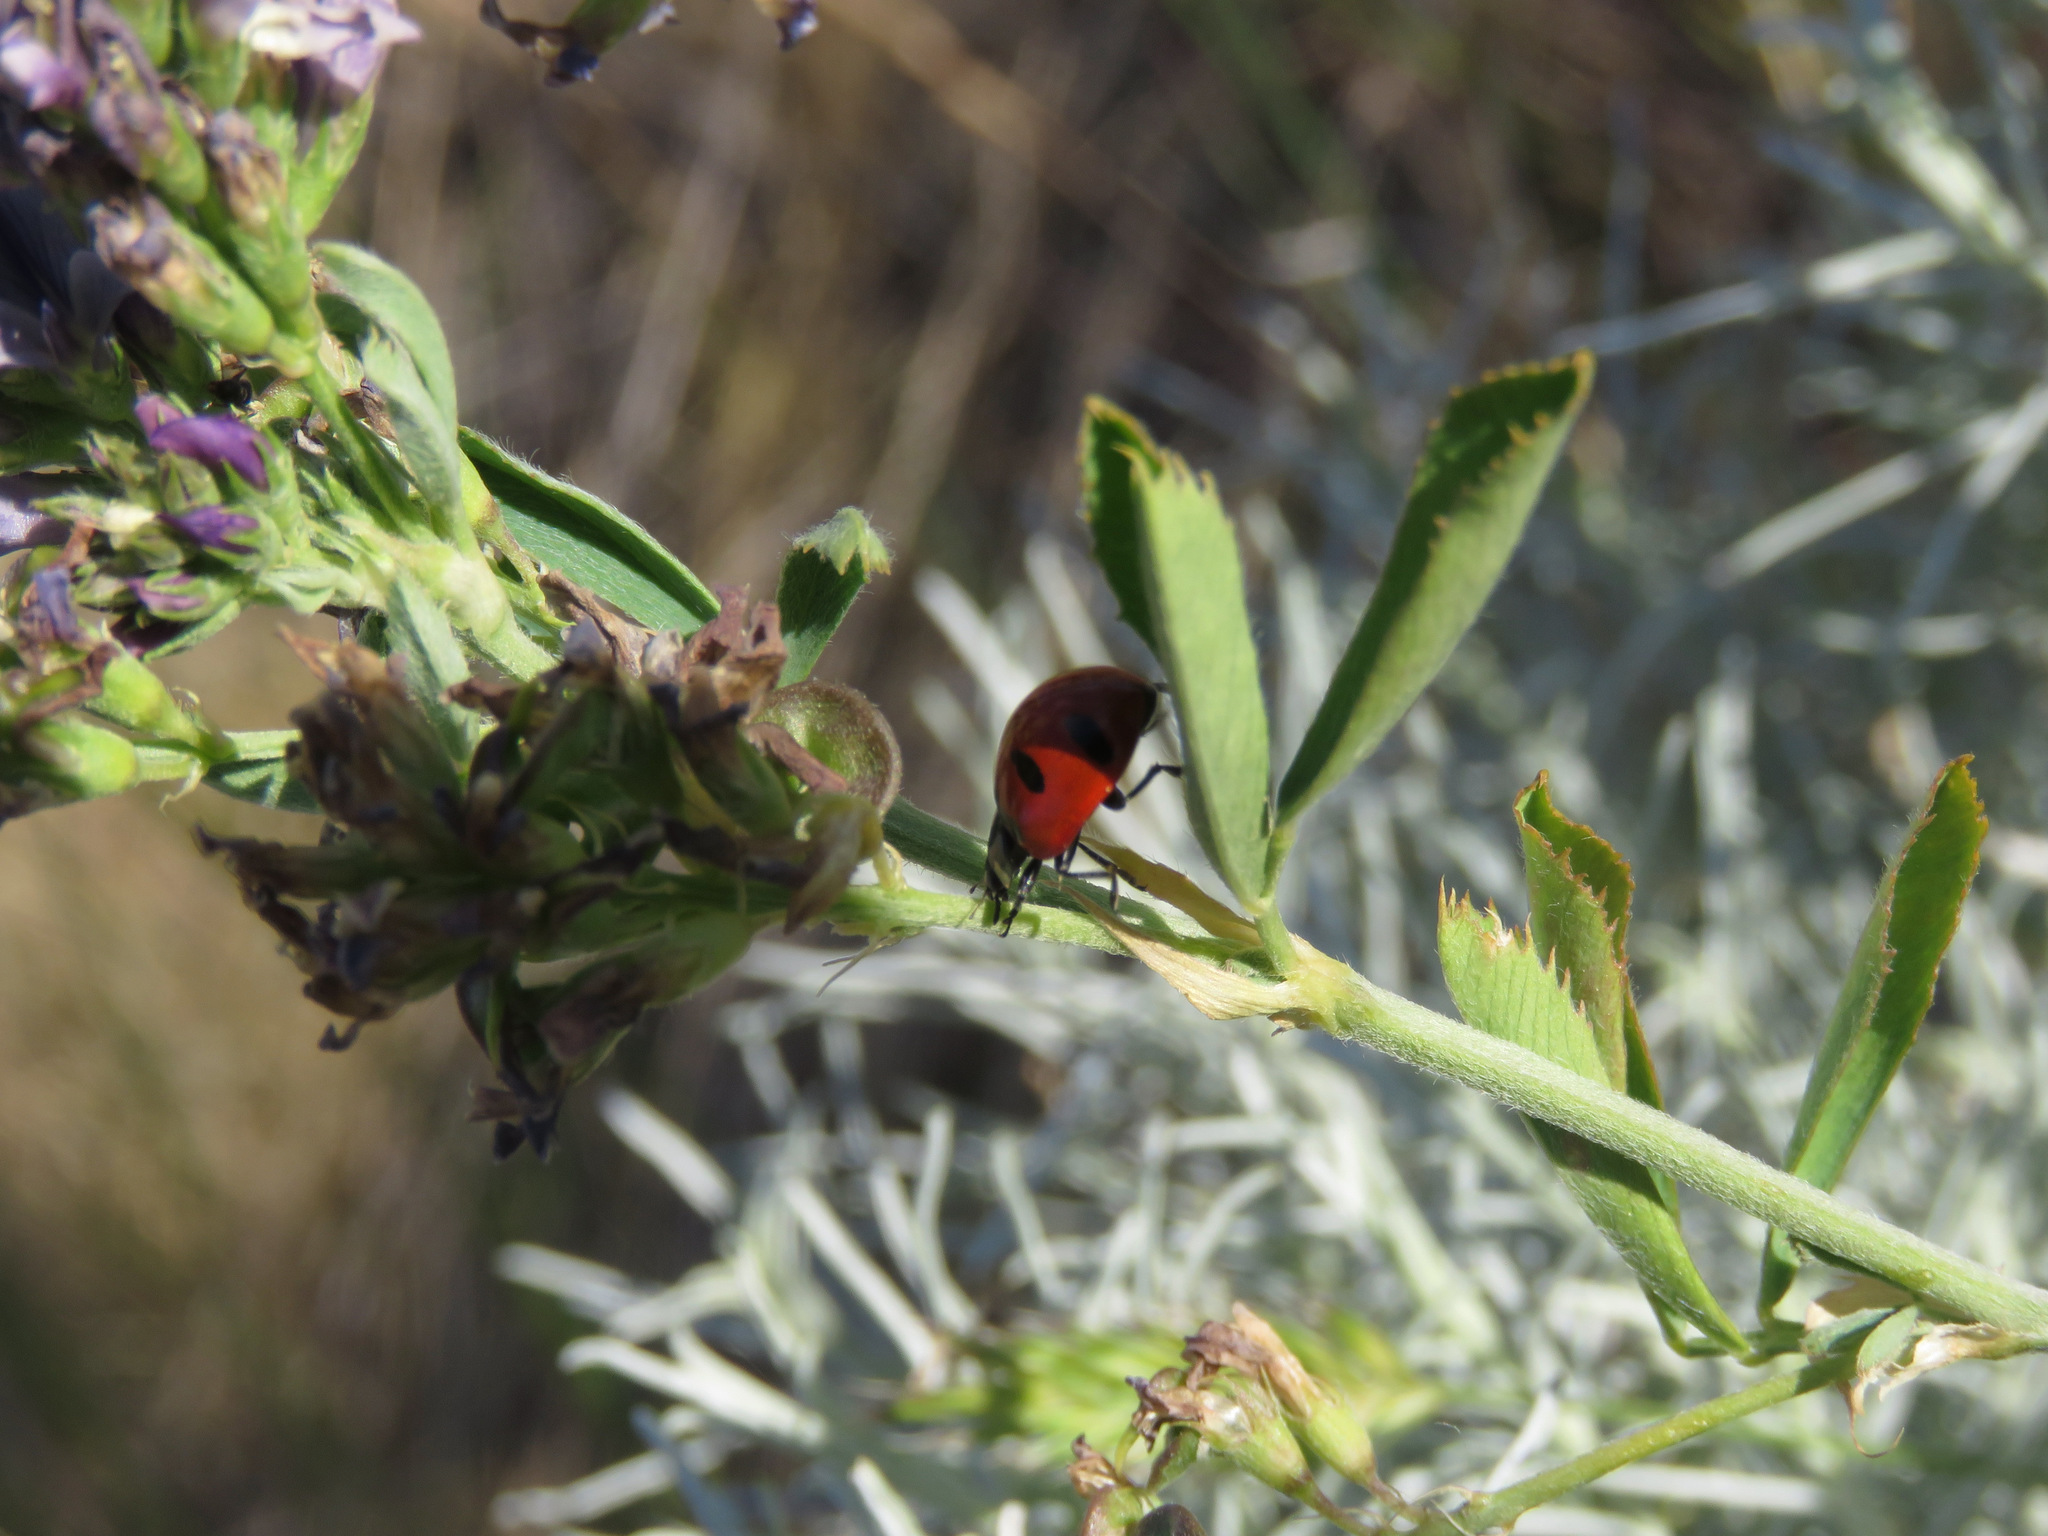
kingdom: Animalia
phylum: Arthropoda
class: Insecta
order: Coleoptera
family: Coccinellidae
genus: Coccinella
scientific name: Coccinella transversoguttata
